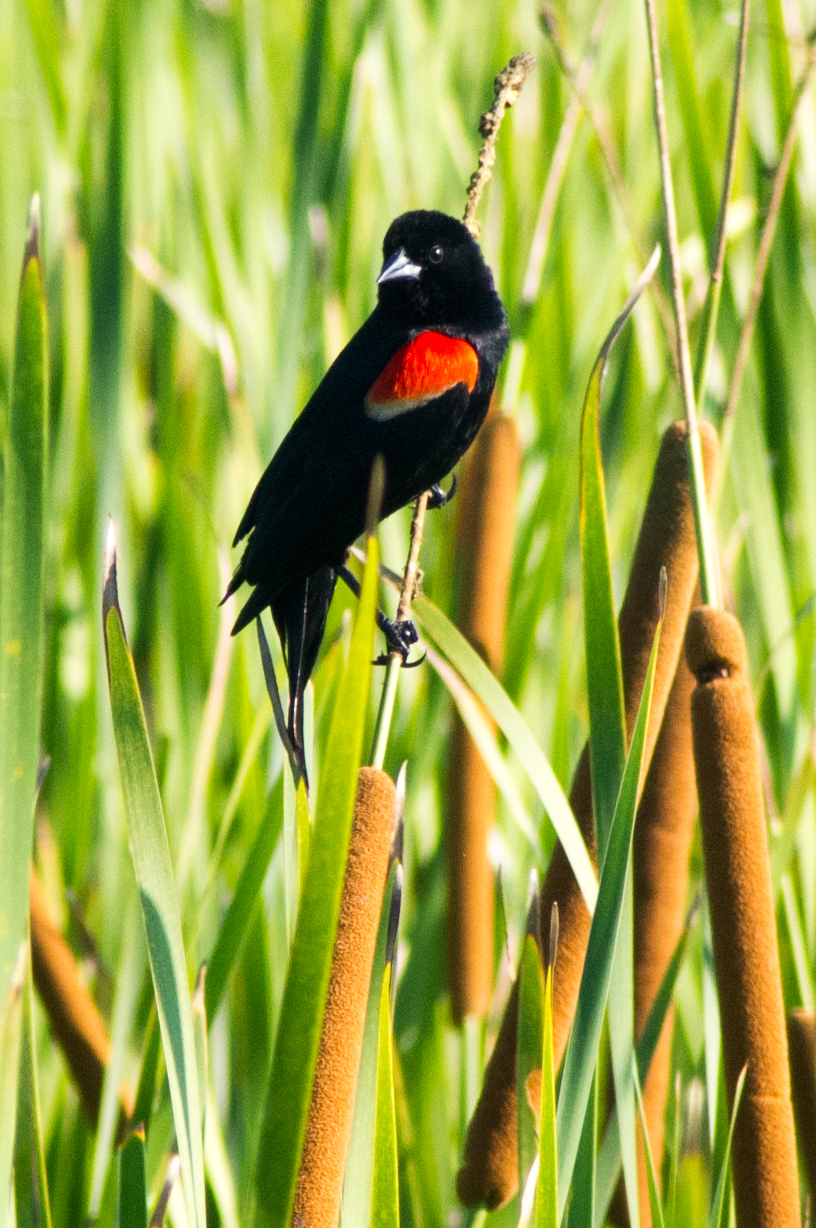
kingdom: Animalia
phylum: Chordata
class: Aves
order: Passeriformes
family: Icteridae
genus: Agelaius
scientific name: Agelaius phoeniceus
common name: Red-winged blackbird
